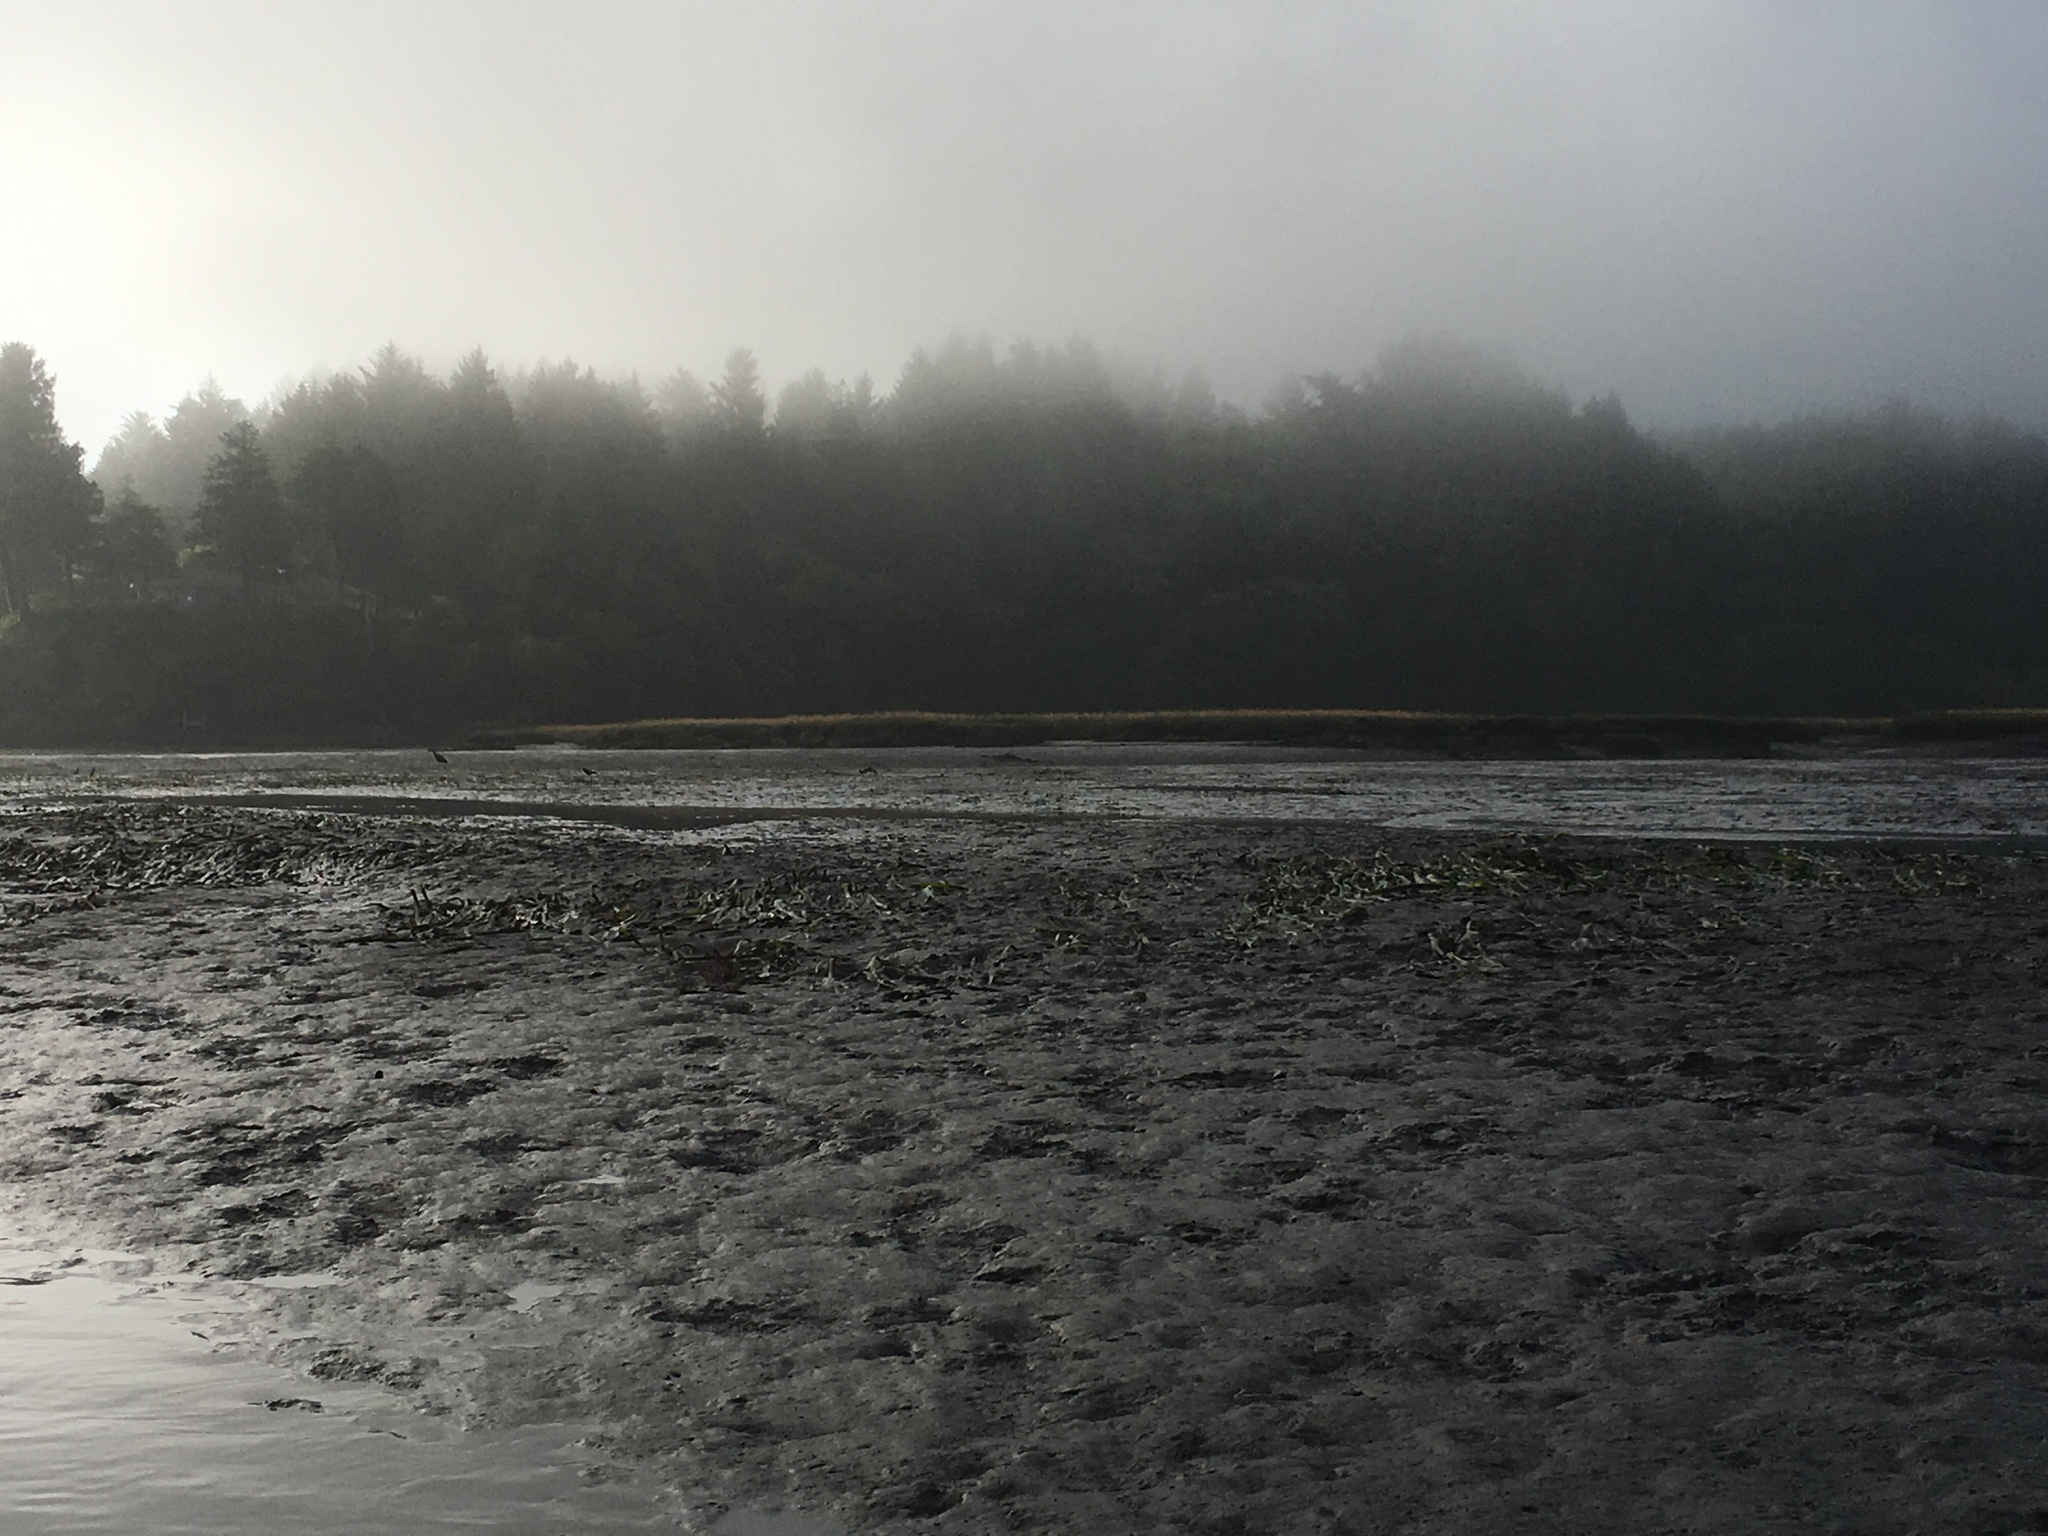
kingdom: Plantae
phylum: Tracheophyta
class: Liliopsida
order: Alismatales
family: Zosteraceae
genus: Zostera
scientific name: Zostera marina
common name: Eelgrass
